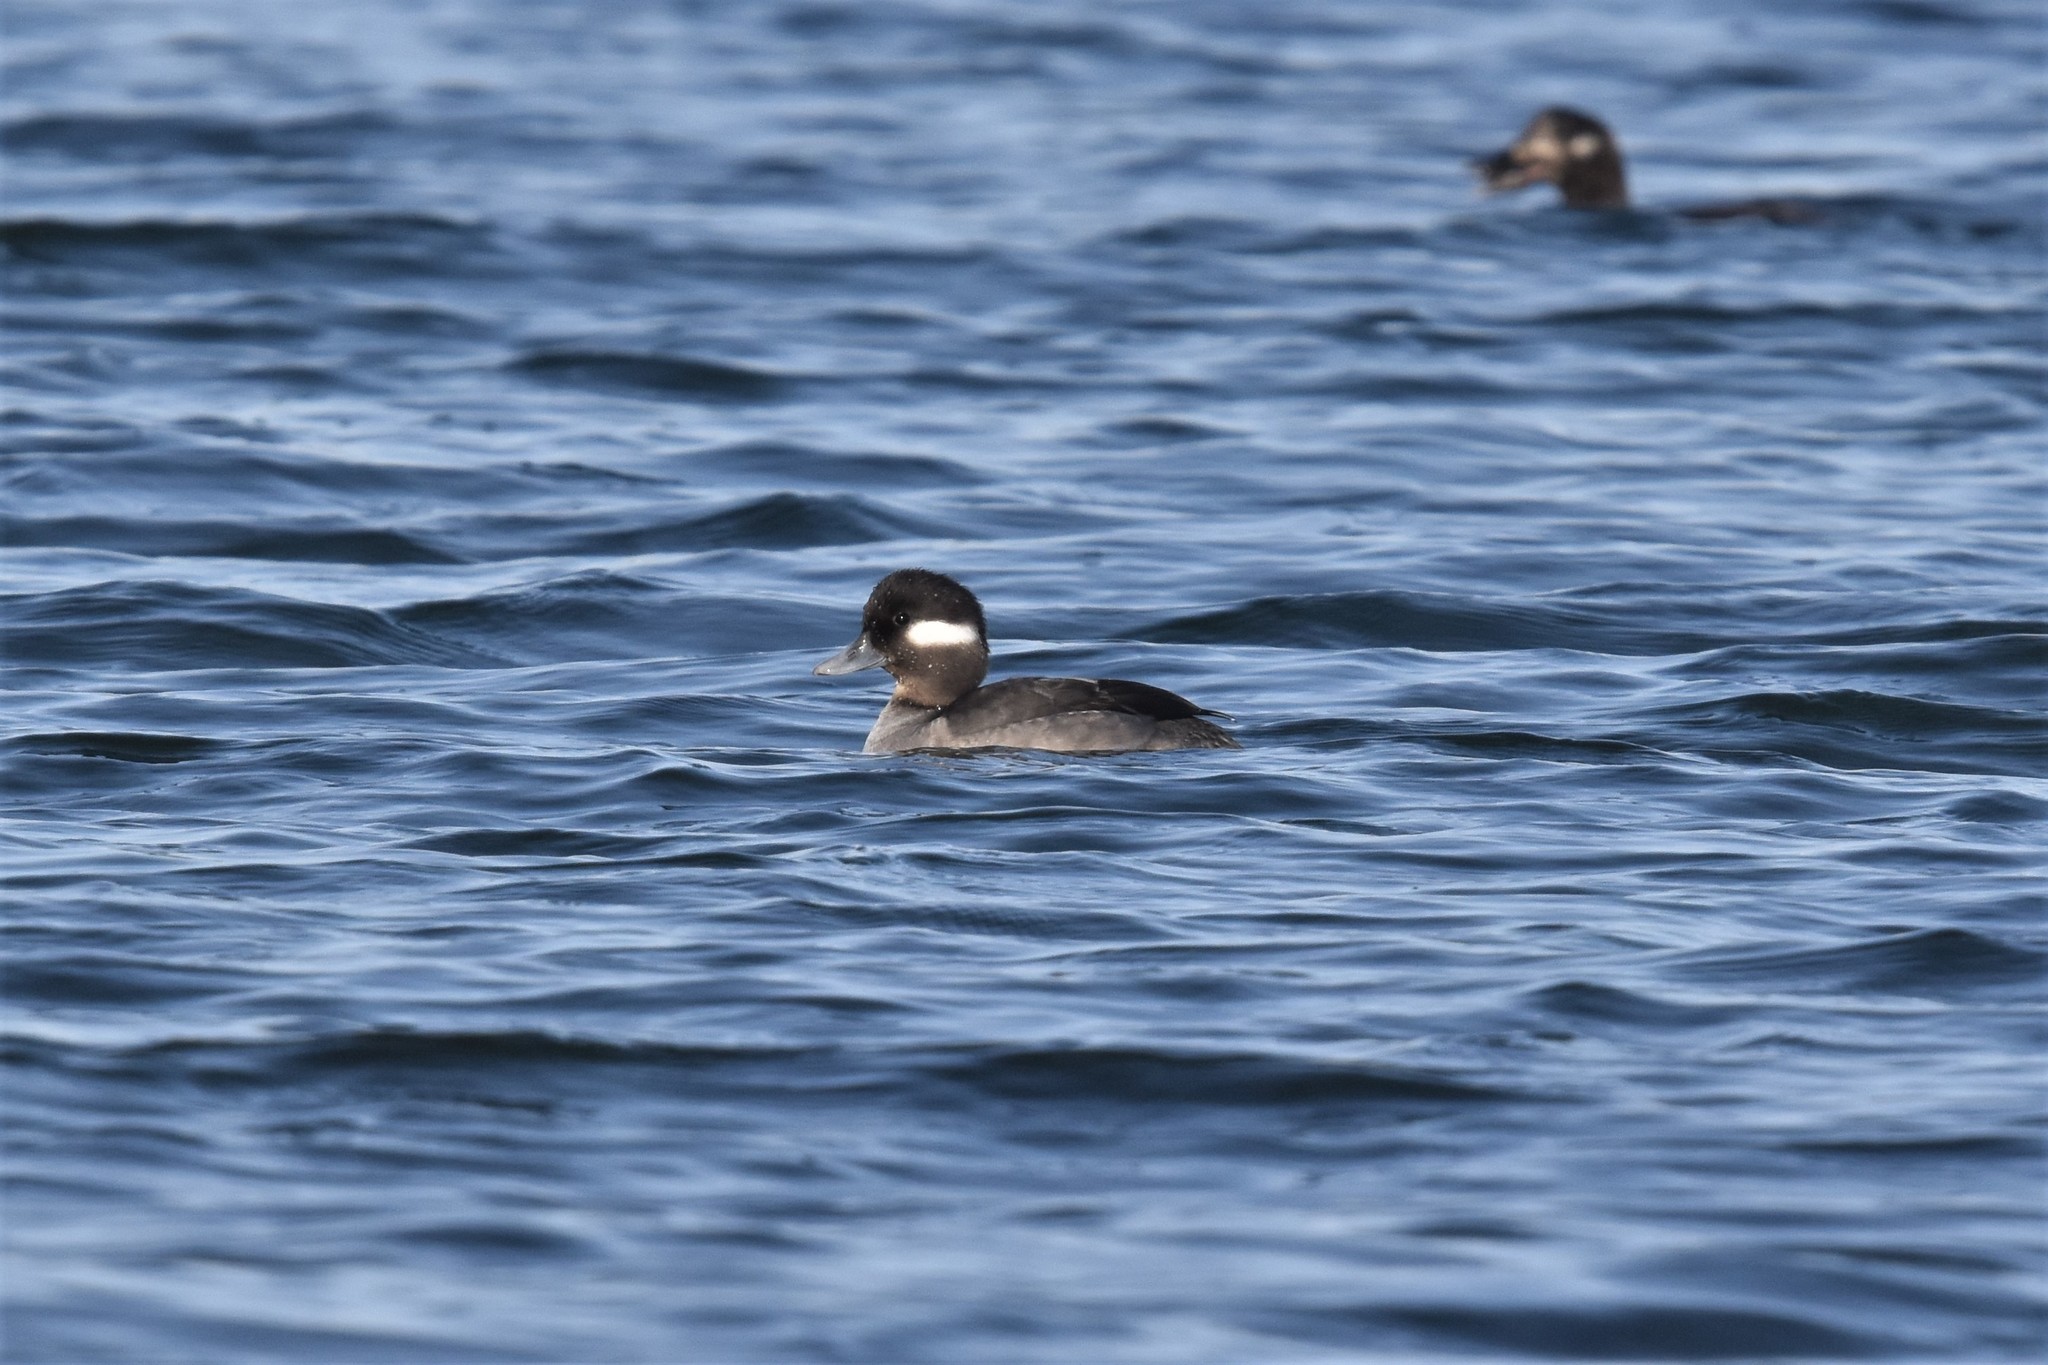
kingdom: Animalia
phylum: Chordata
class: Aves
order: Anseriformes
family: Anatidae
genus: Bucephala
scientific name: Bucephala albeola
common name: Bufflehead
